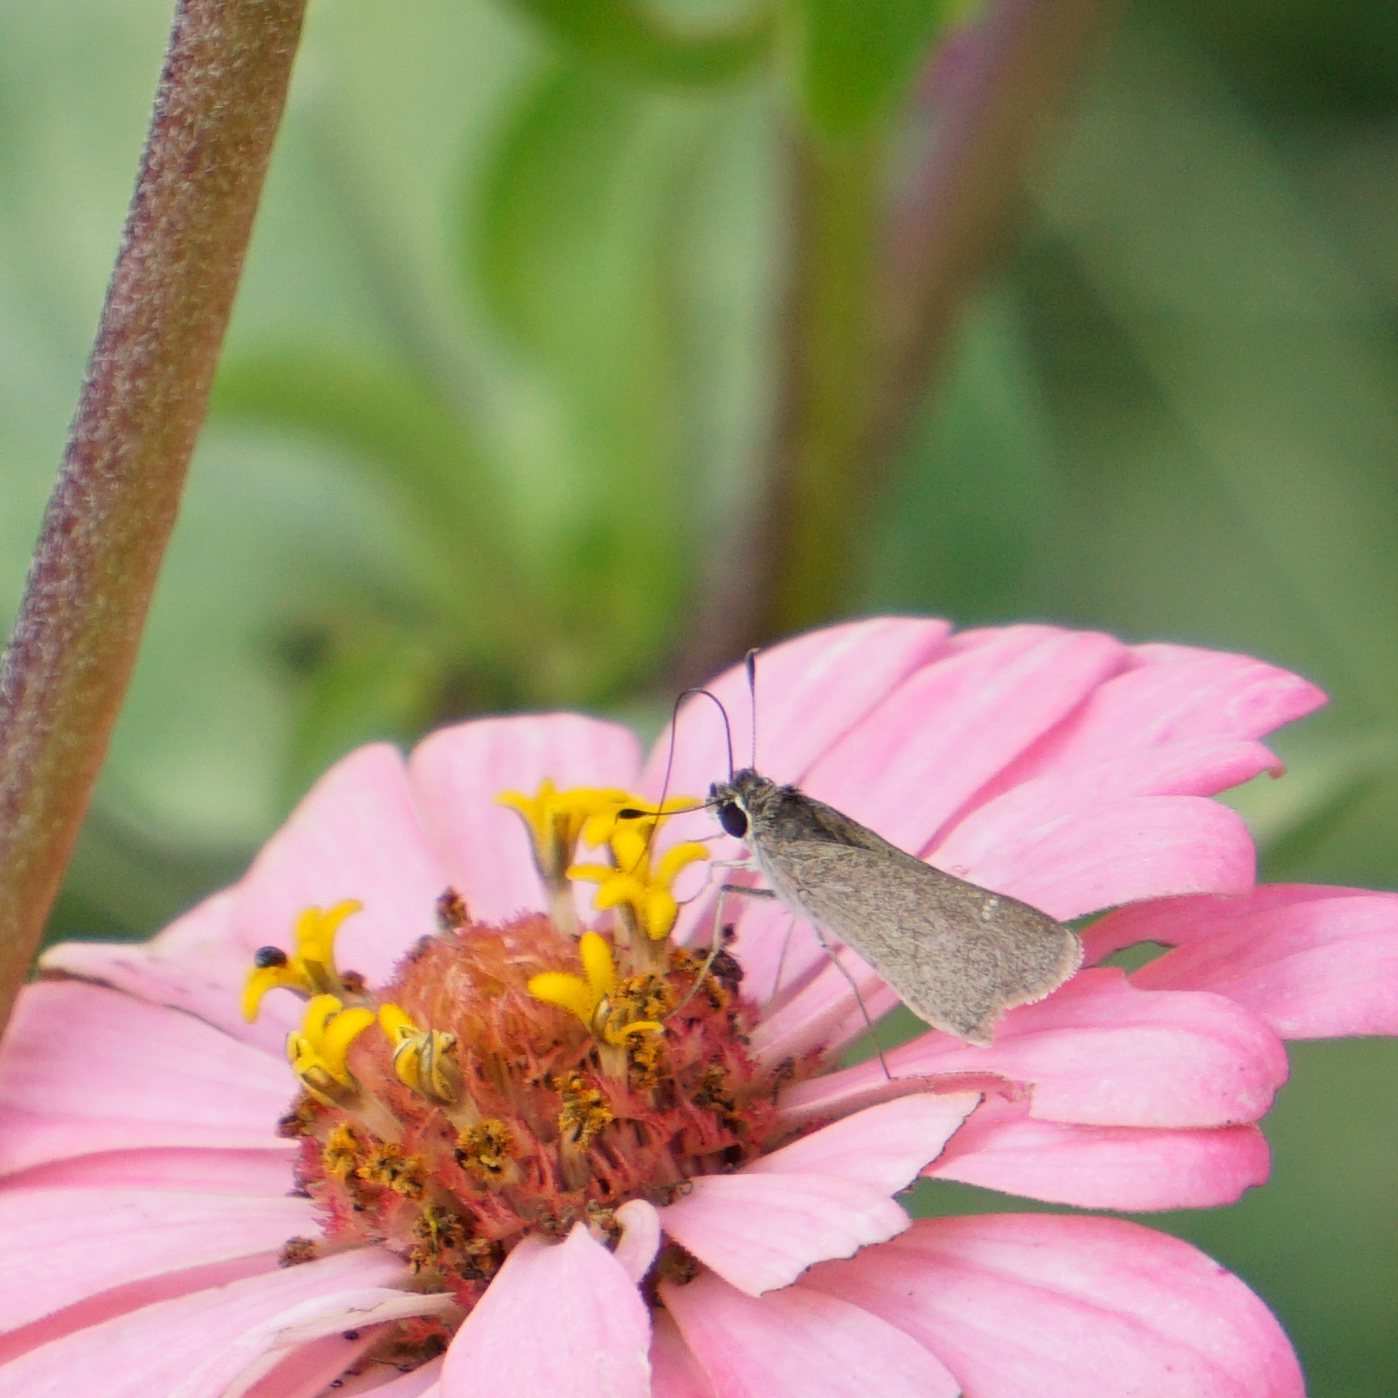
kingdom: Animalia
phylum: Arthropoda
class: Insecta
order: Lepidoptera
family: Hesperiidae
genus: Lerodea
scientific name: Lerodea eufala
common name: Eufala skipper
